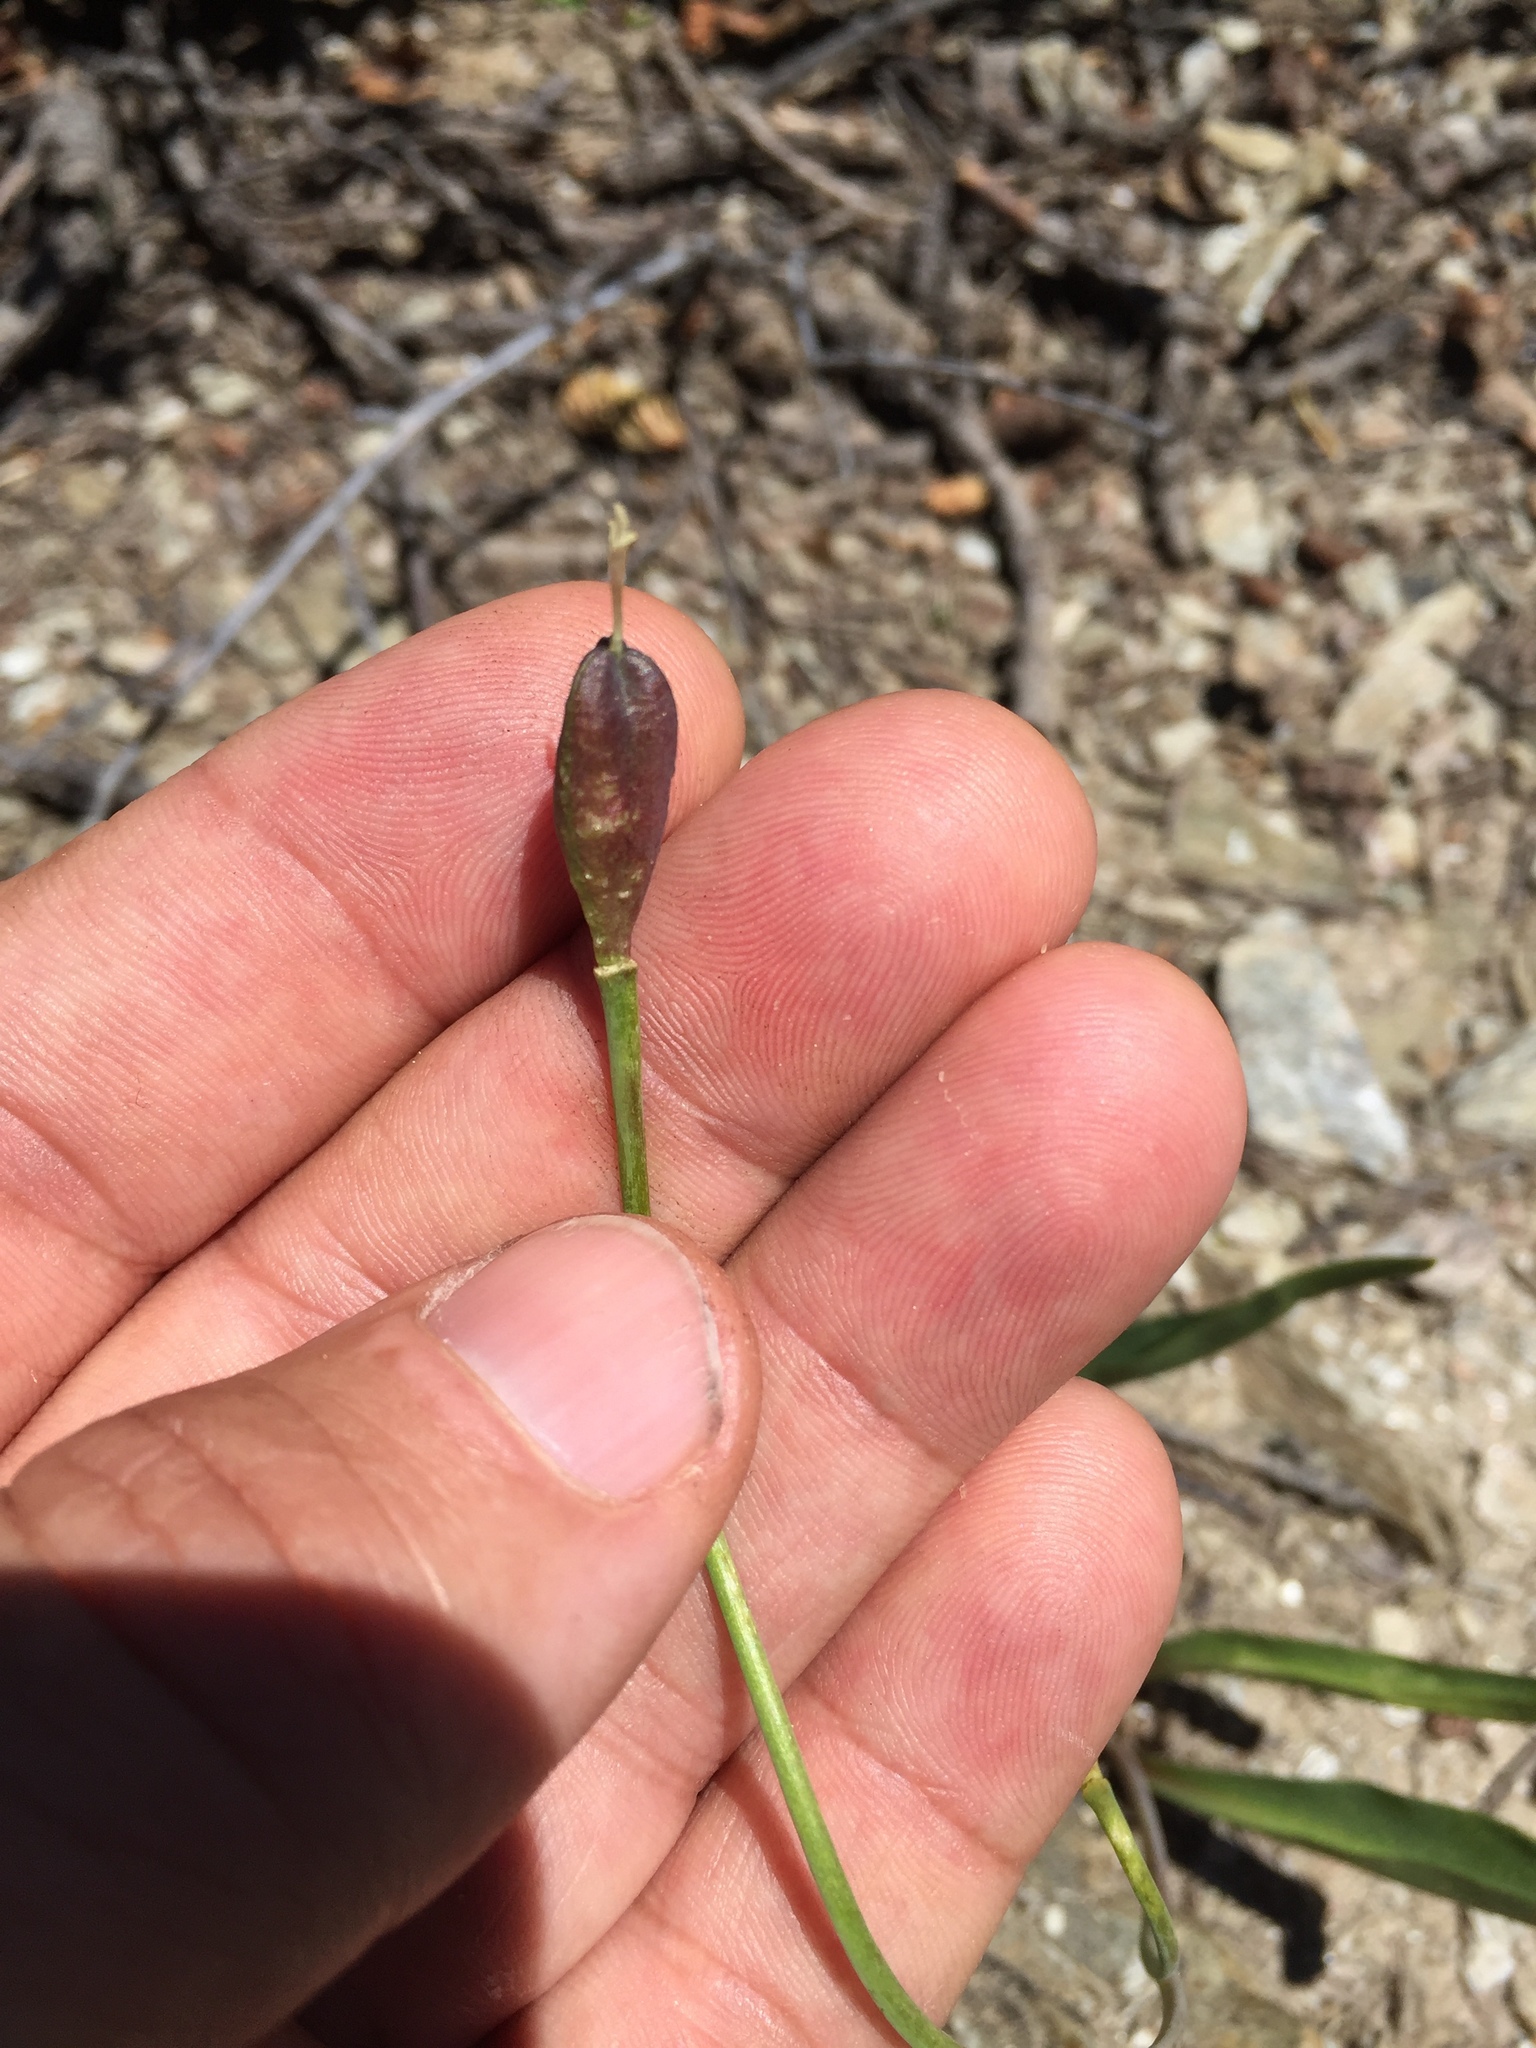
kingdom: Plantae
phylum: Tracheophyta
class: Liliopsida
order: Liliales
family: Liliaceae
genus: Erythronium
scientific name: Erythronium grandiflorum
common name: Avalanche-lily
